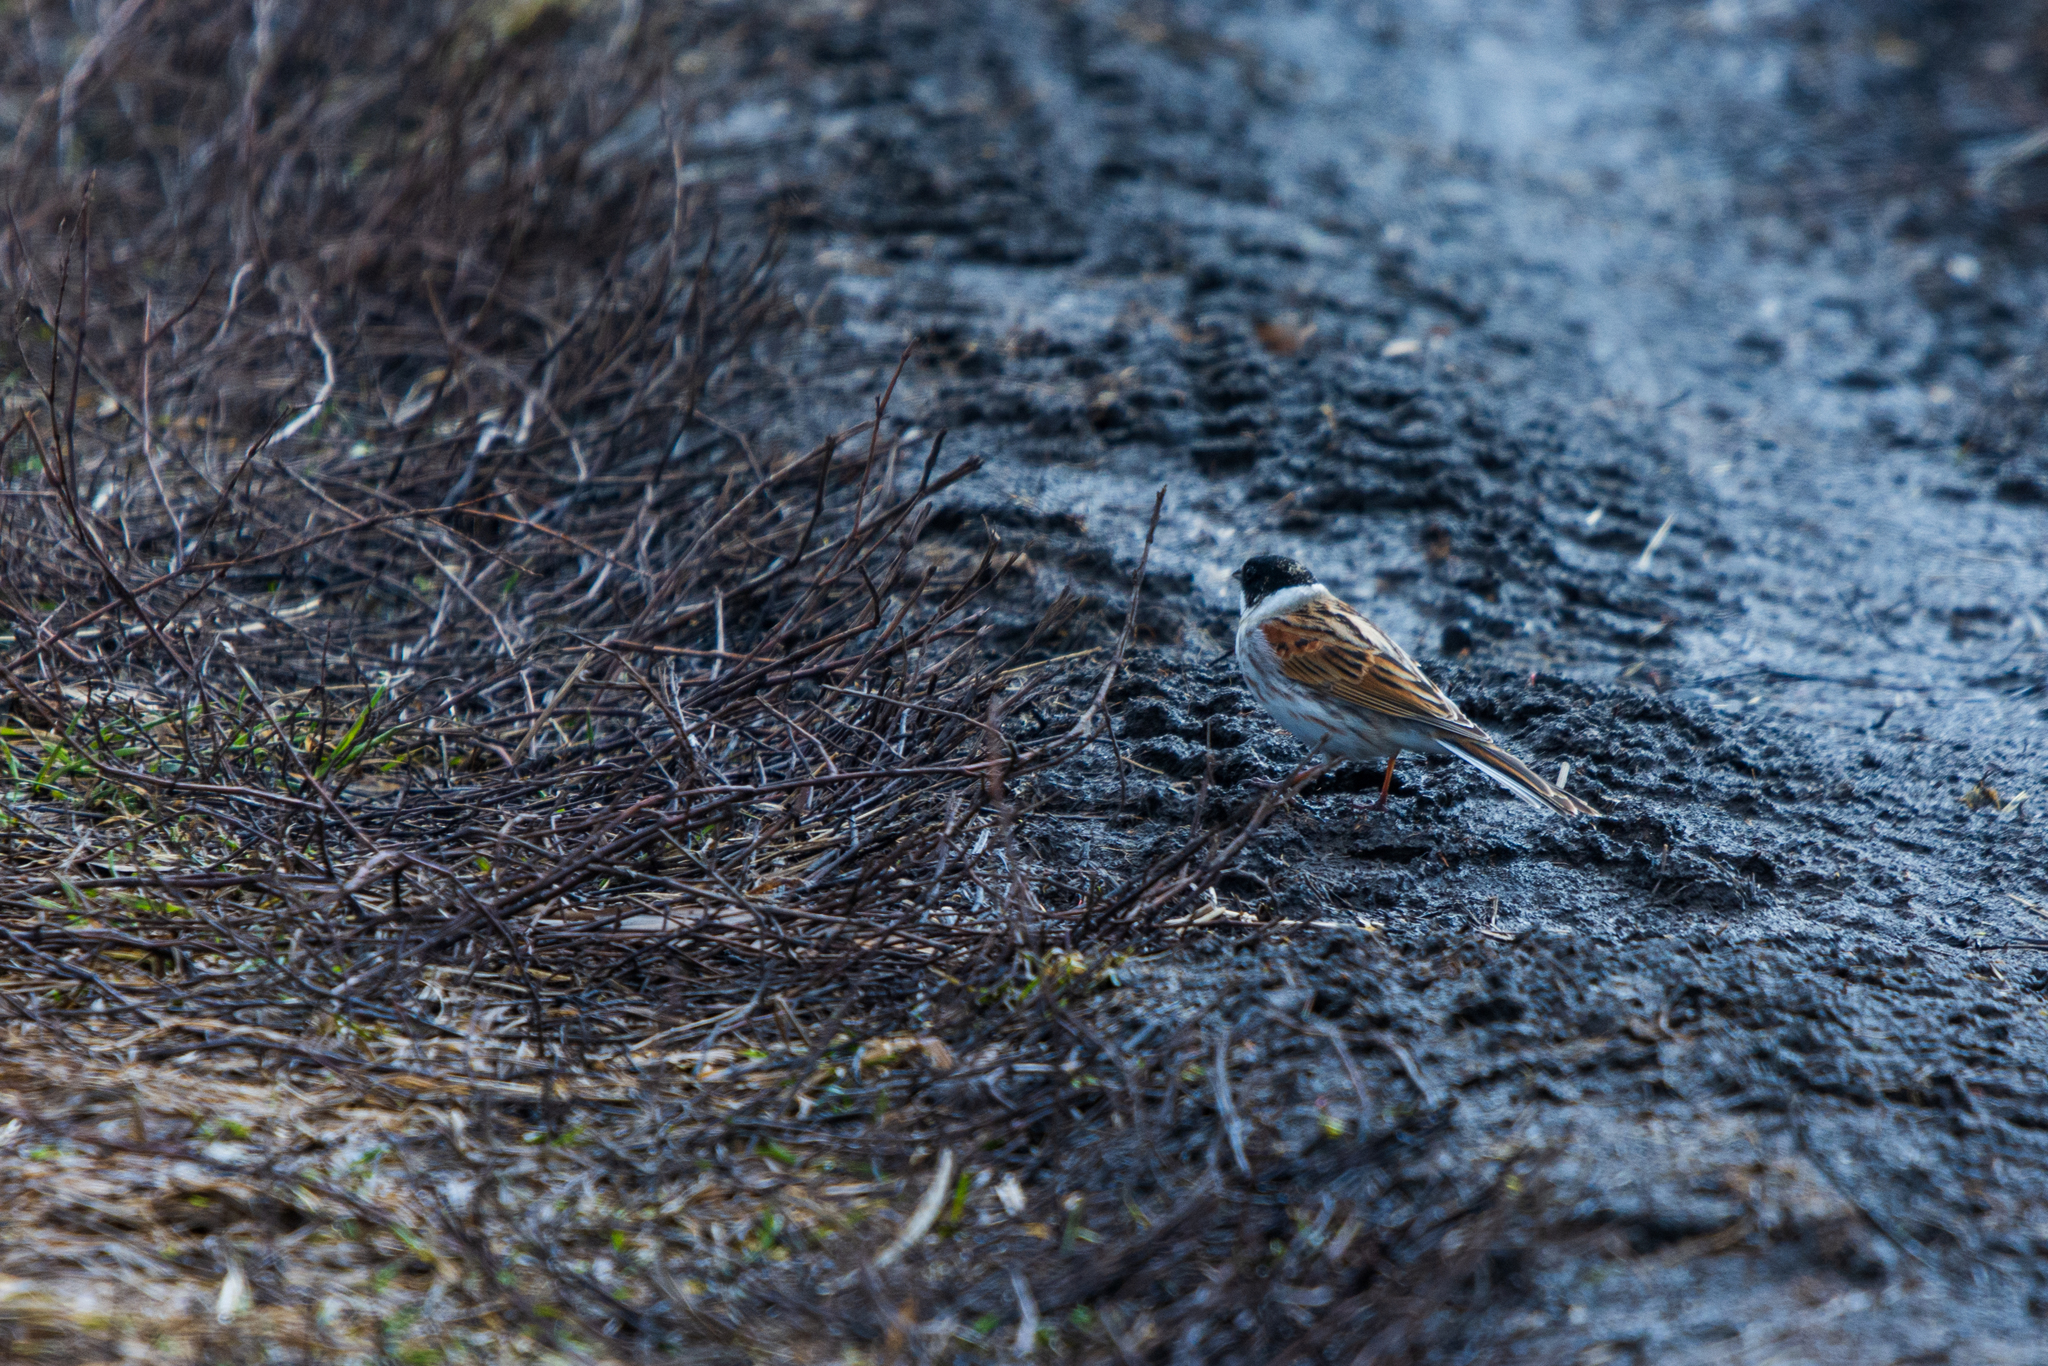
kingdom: Animalia
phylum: Chordata
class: Aves
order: Passeriformes
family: Emberizidae
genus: Emberiza
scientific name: Emberiza schoeniclus
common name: Reed bunting
